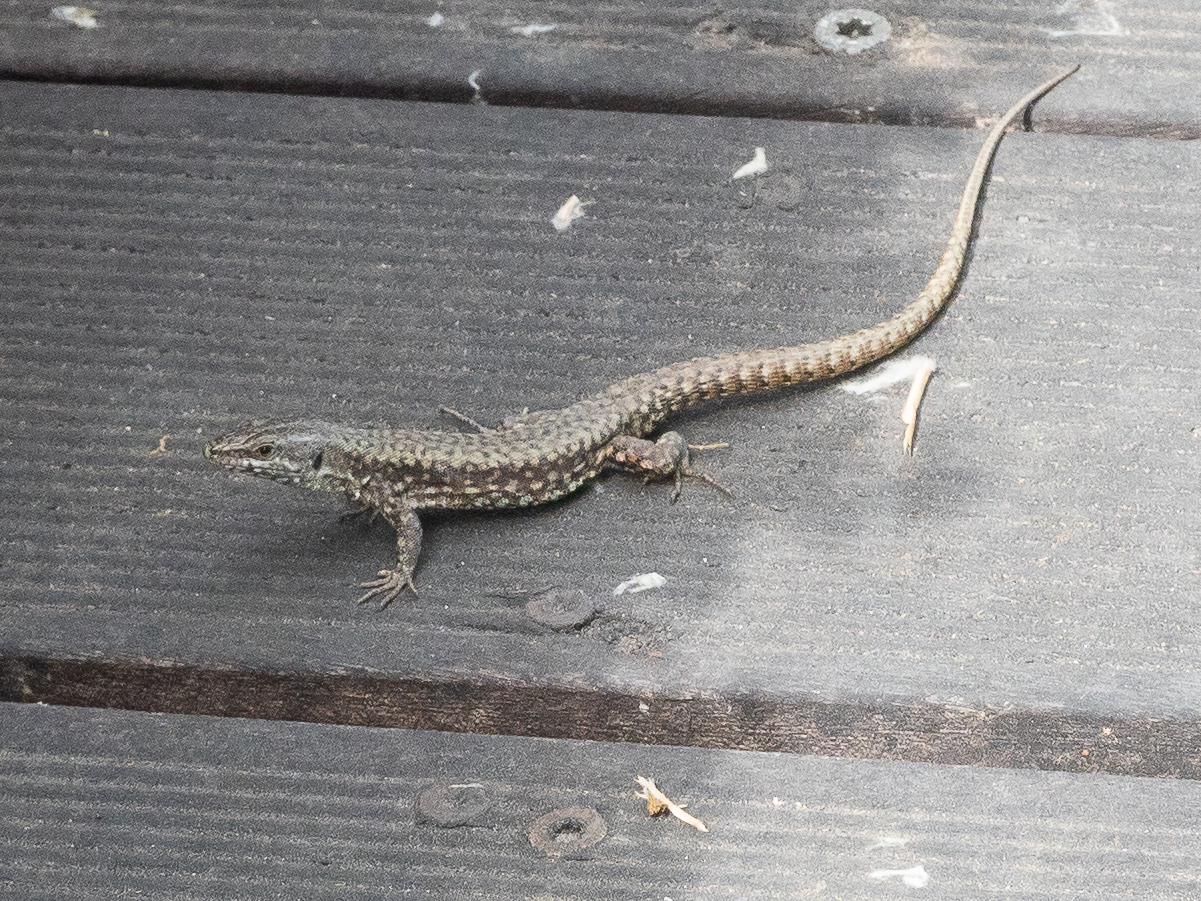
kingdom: Animalia
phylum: Chordata
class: Squamata
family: Lacertidae
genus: Podarcis
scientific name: Podarcis muralis
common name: Common wall lizard
